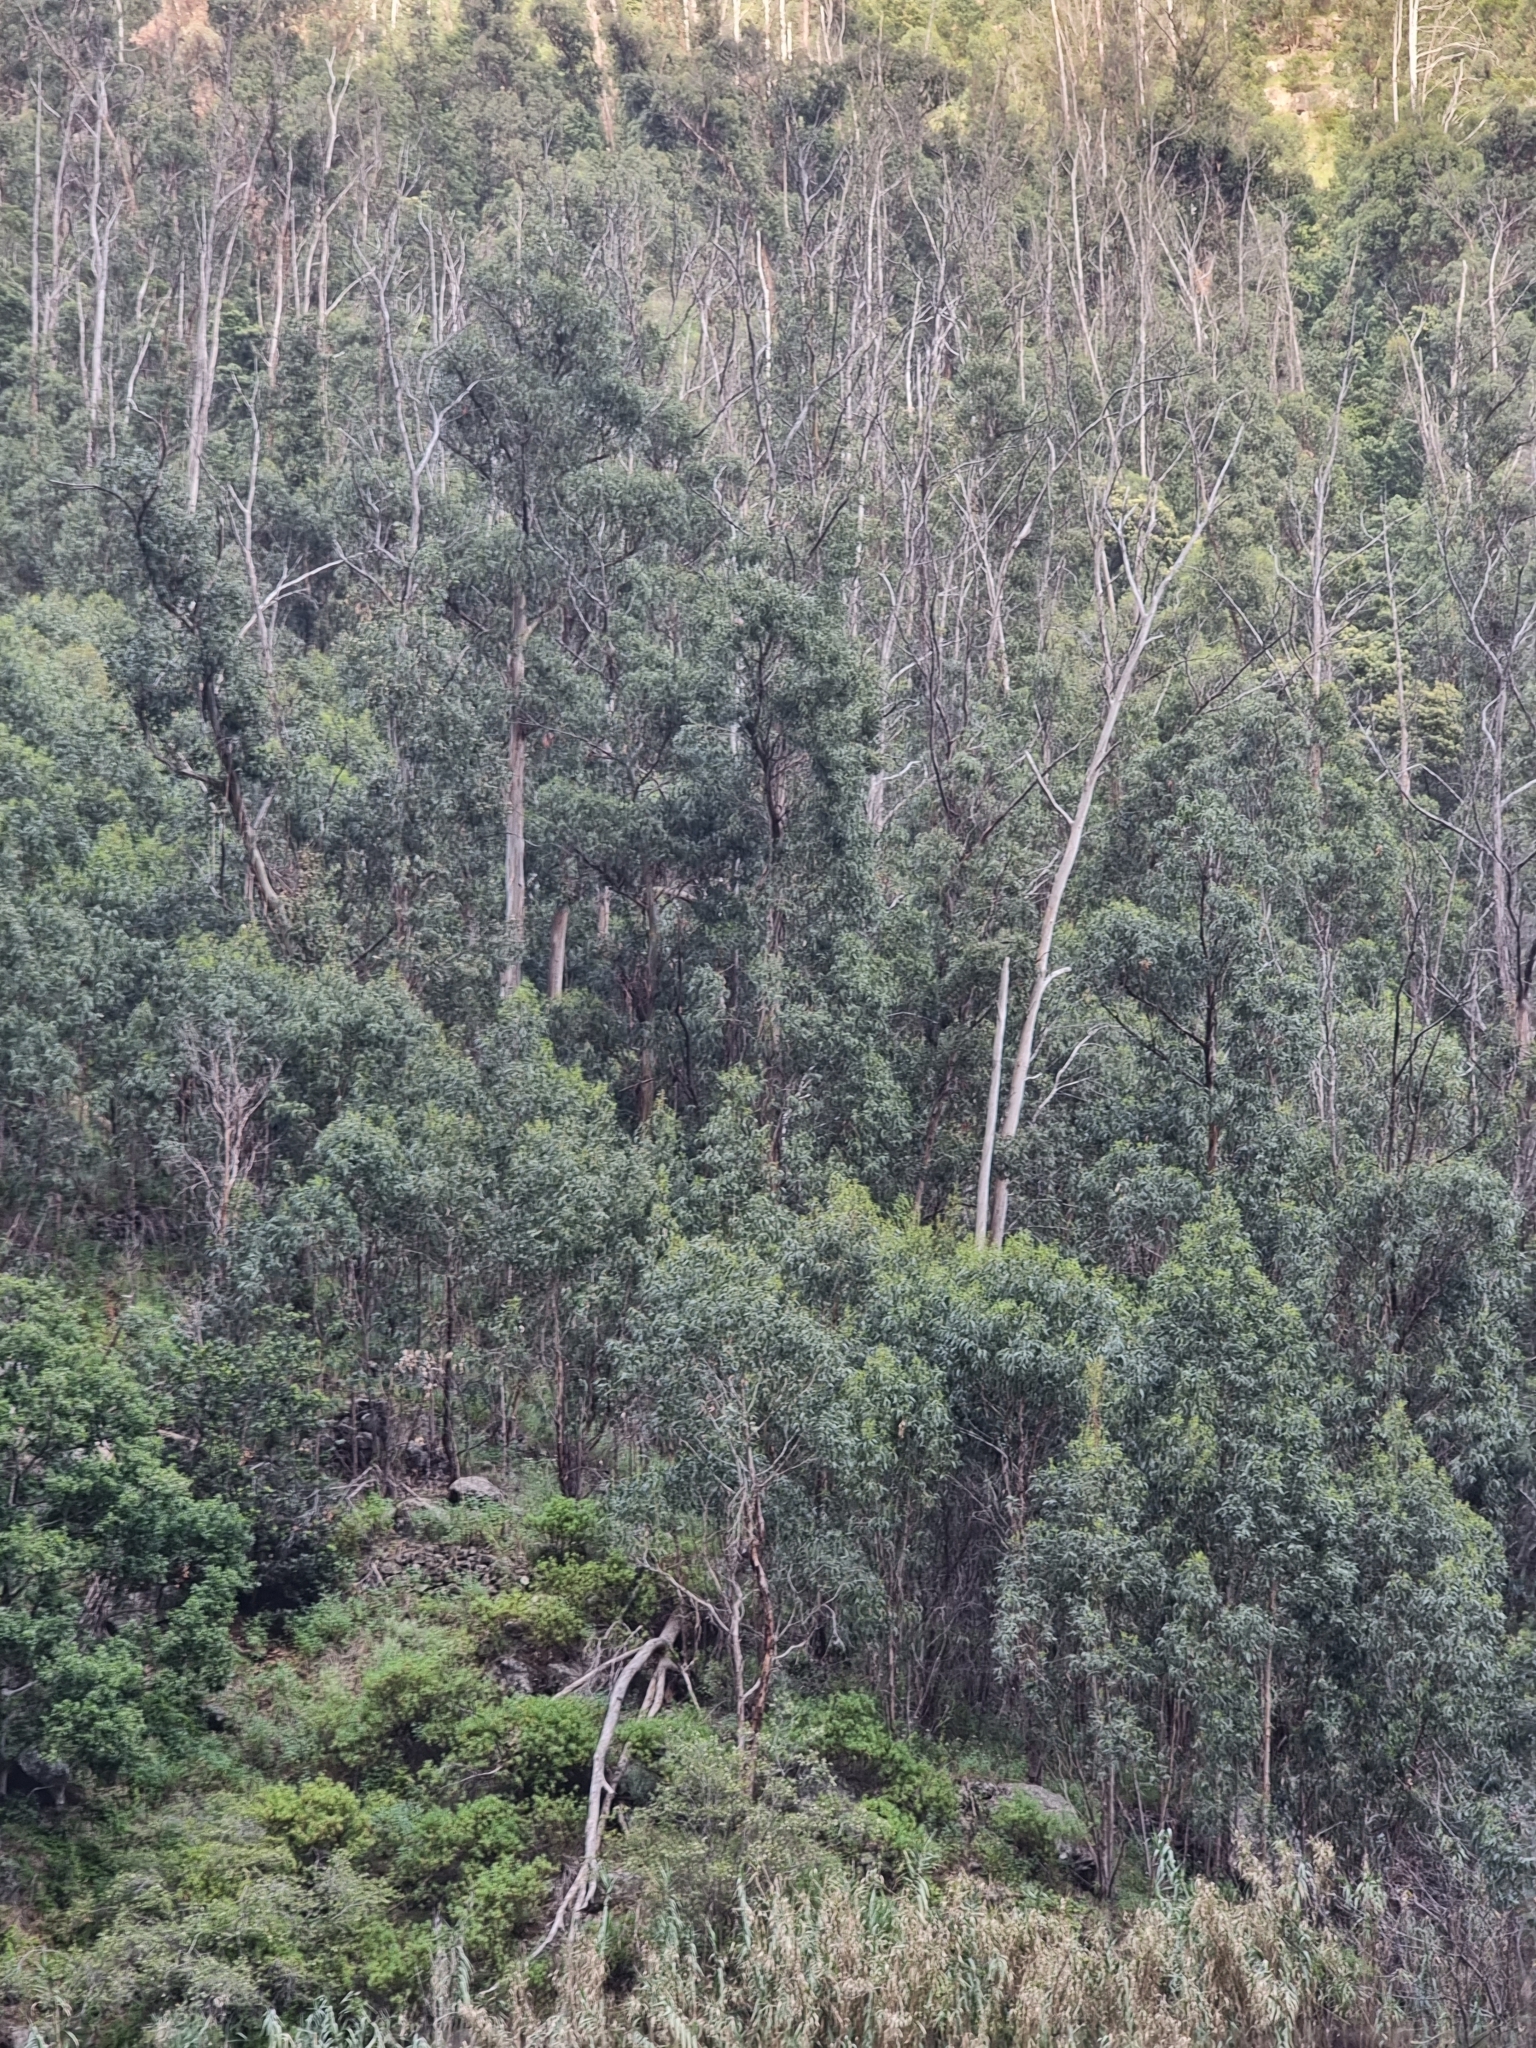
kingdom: Plantae
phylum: Tracheophyta
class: Magnoliopsida
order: Myrtales
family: Myrtaceae
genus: Eucalyptus
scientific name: Eucalyptus globulus
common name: Southern blue-gum
